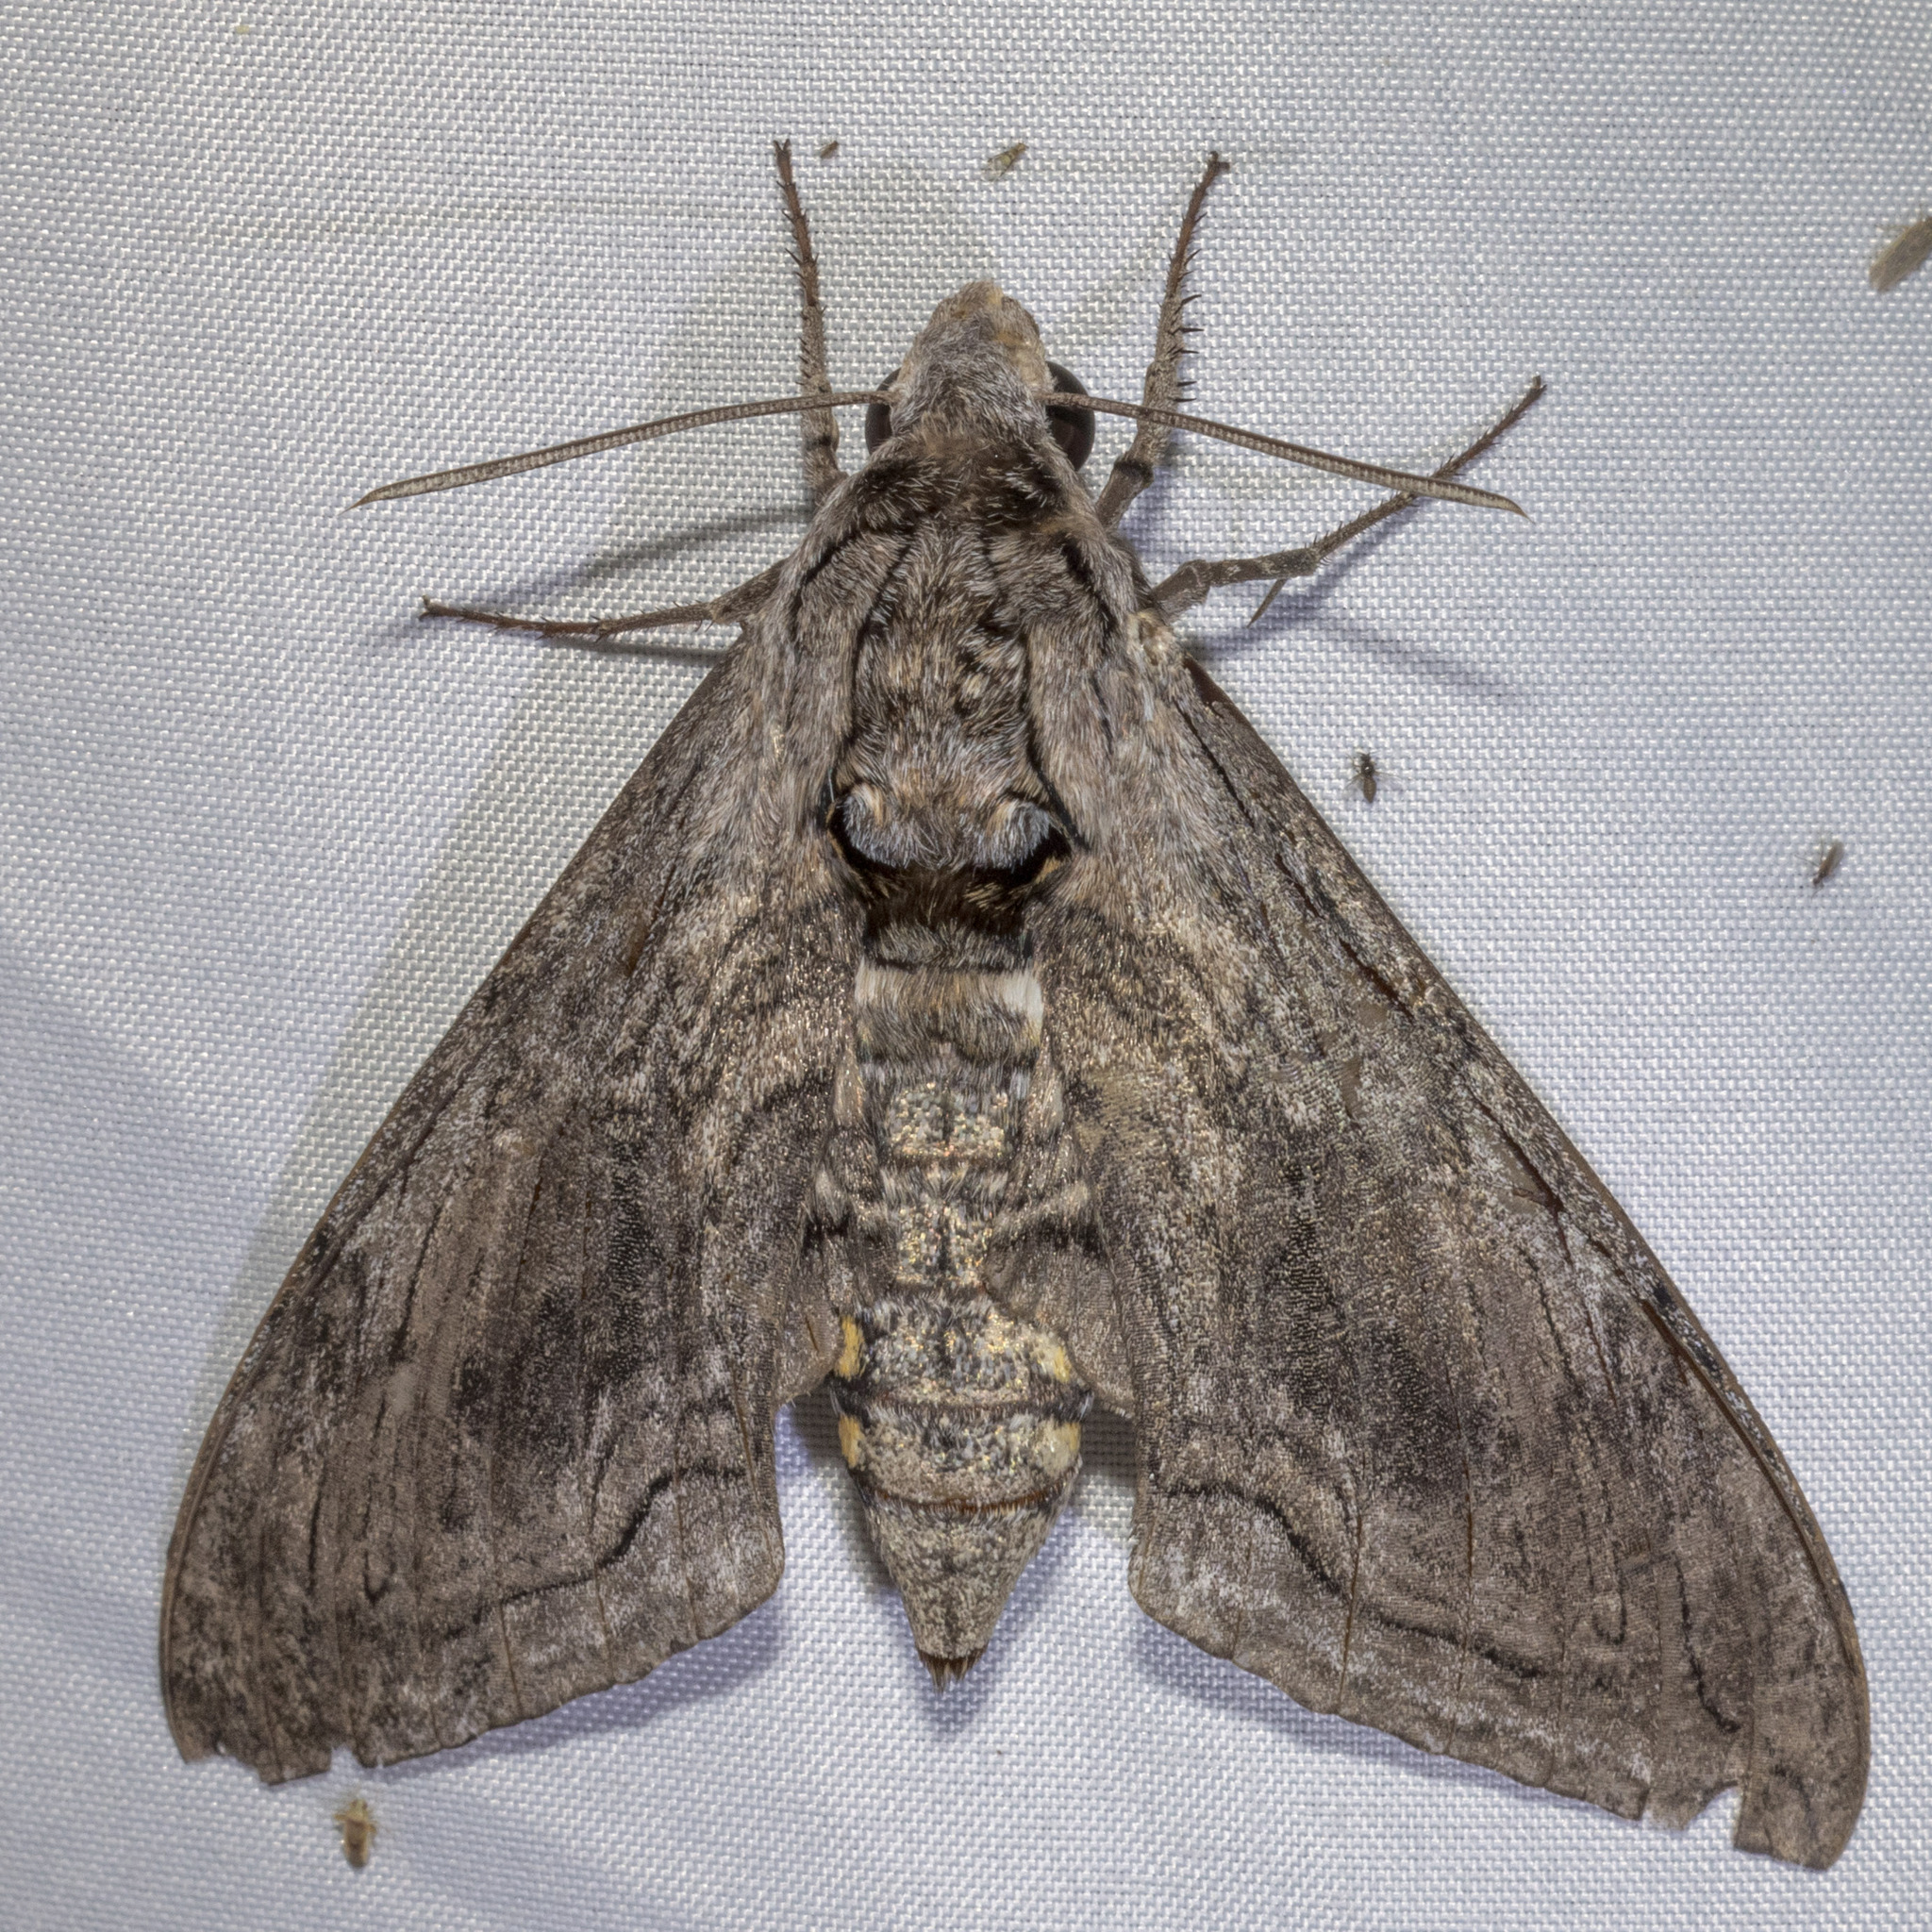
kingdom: Animalia
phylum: Arthropoda
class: Insecta
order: Lepidoptera
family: Sphingidae
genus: Manduca
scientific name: Manduca quinquemaculatus
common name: Five-spotted hawk-moth
